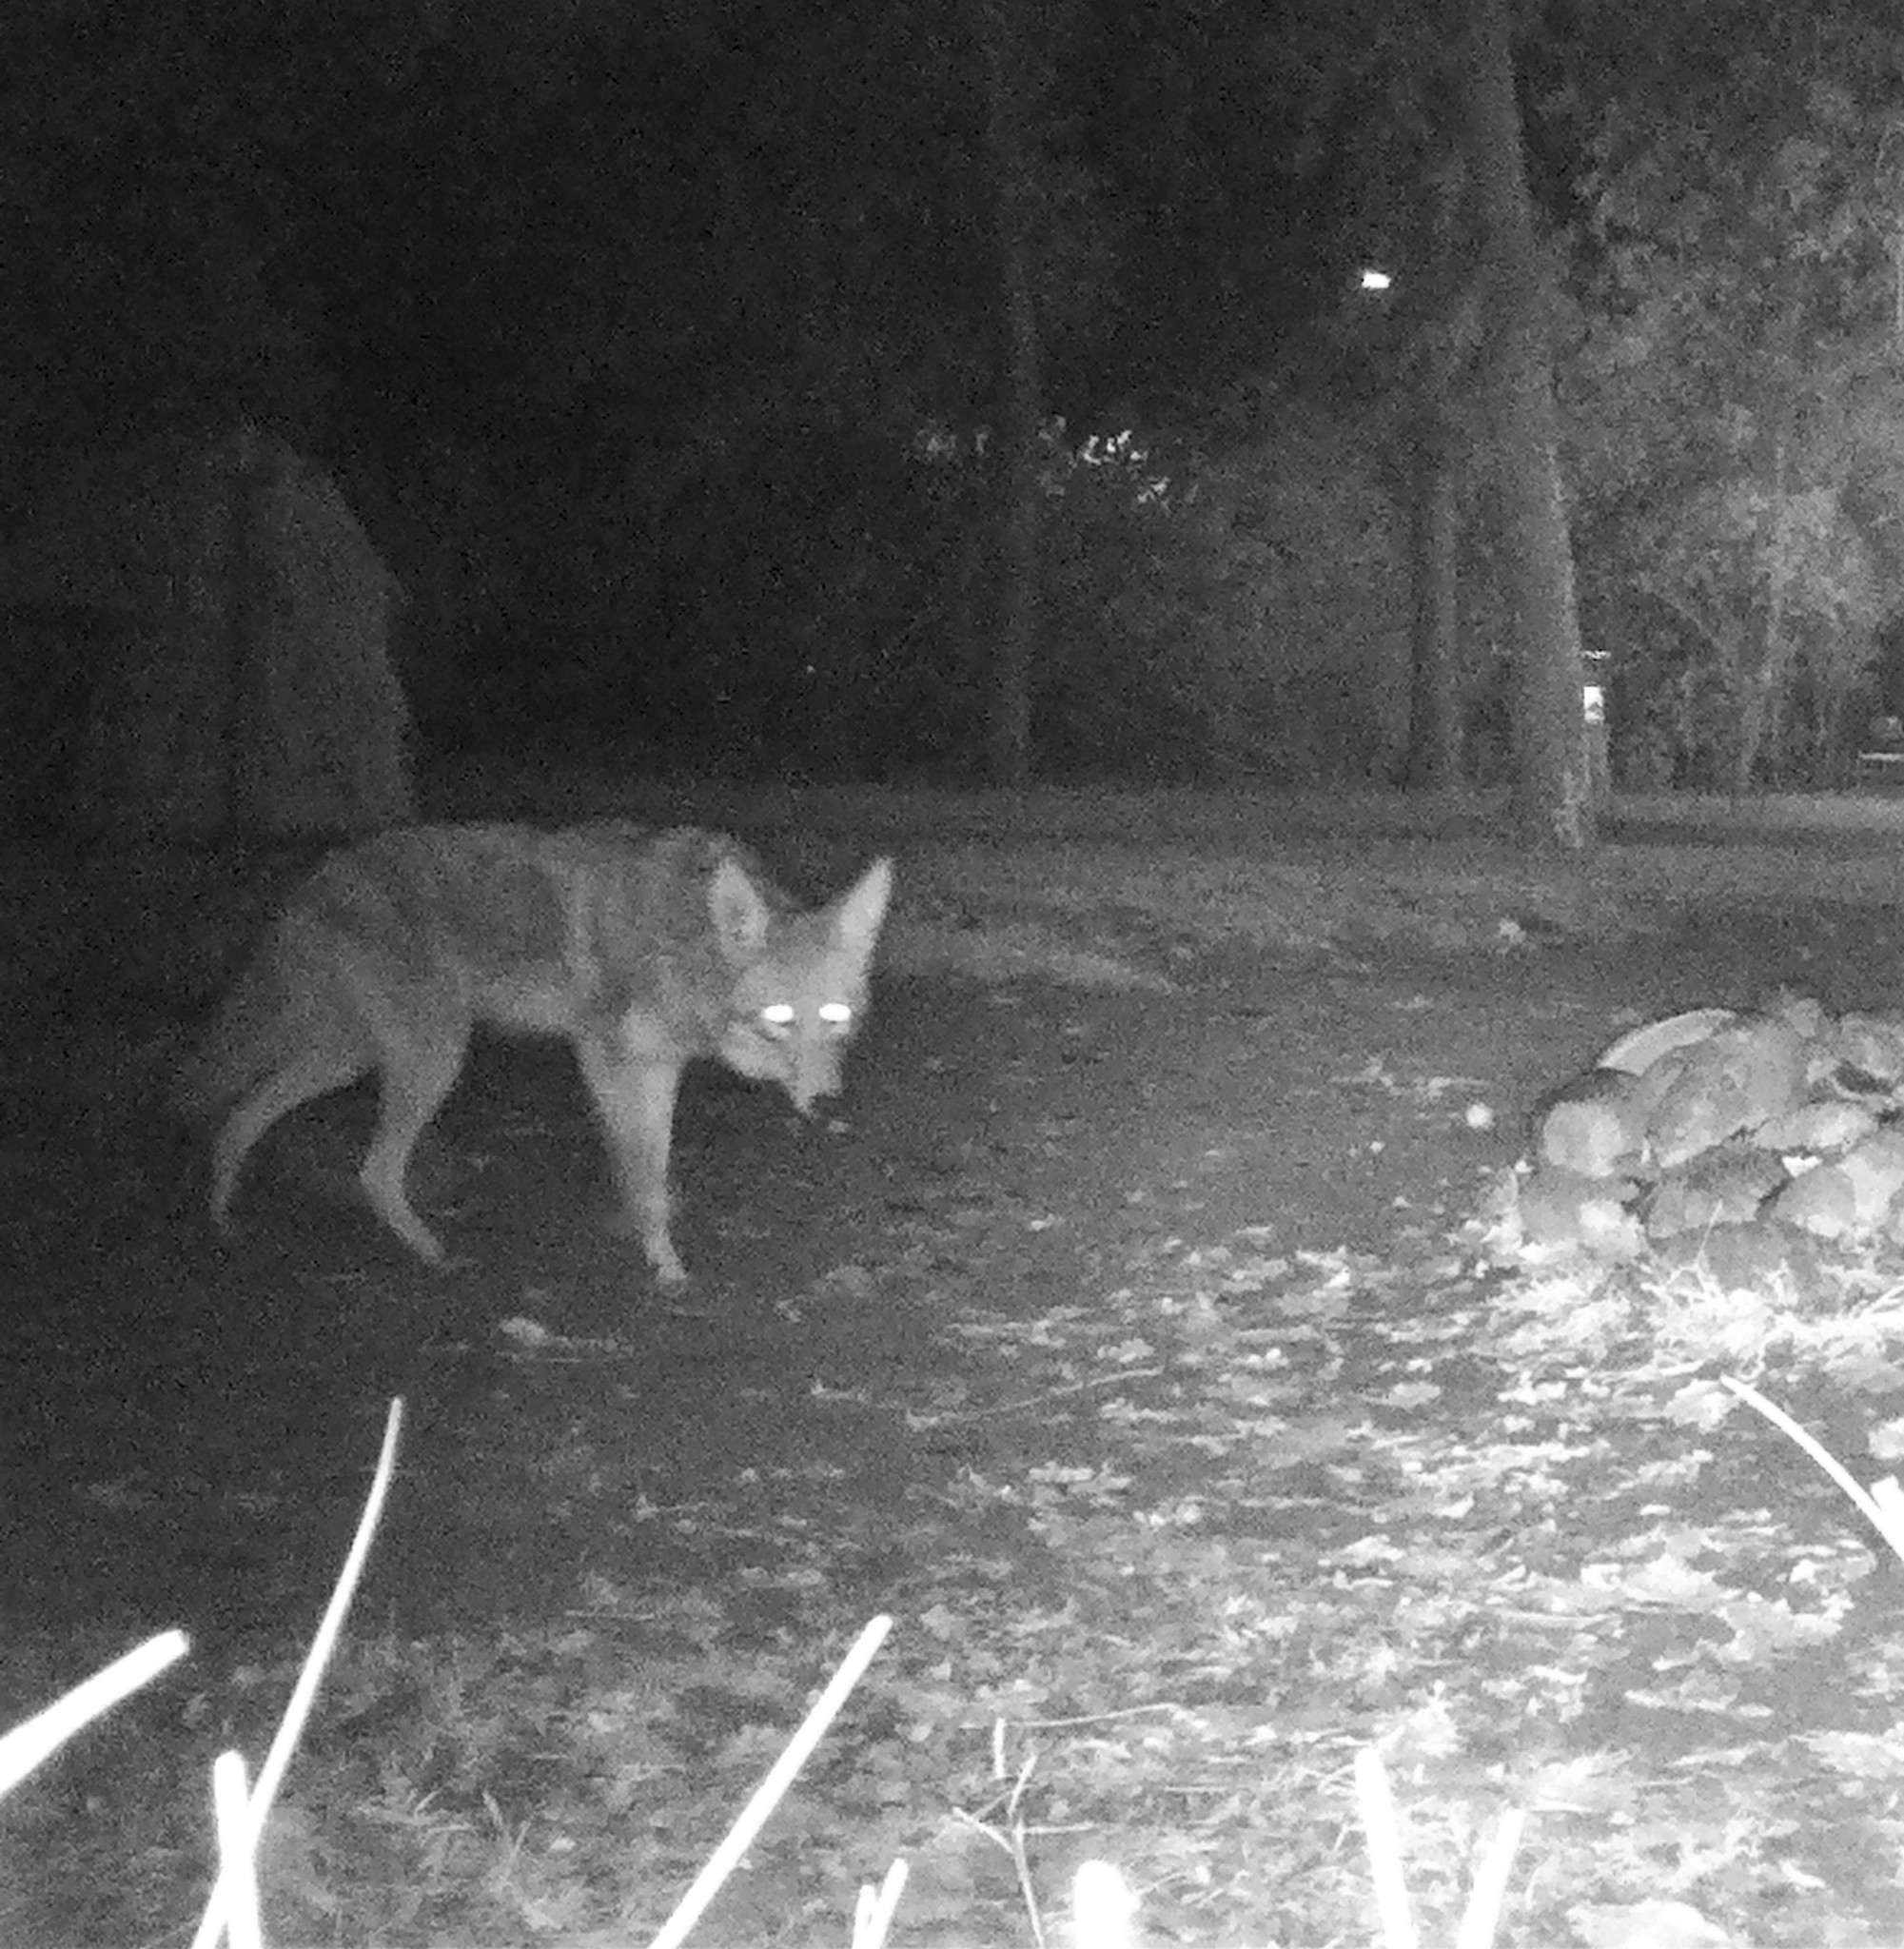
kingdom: Animalia
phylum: Chordata
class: Mammalia
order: Carnivora
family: Canidae
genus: Canis
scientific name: Canis latrans
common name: Coyote
